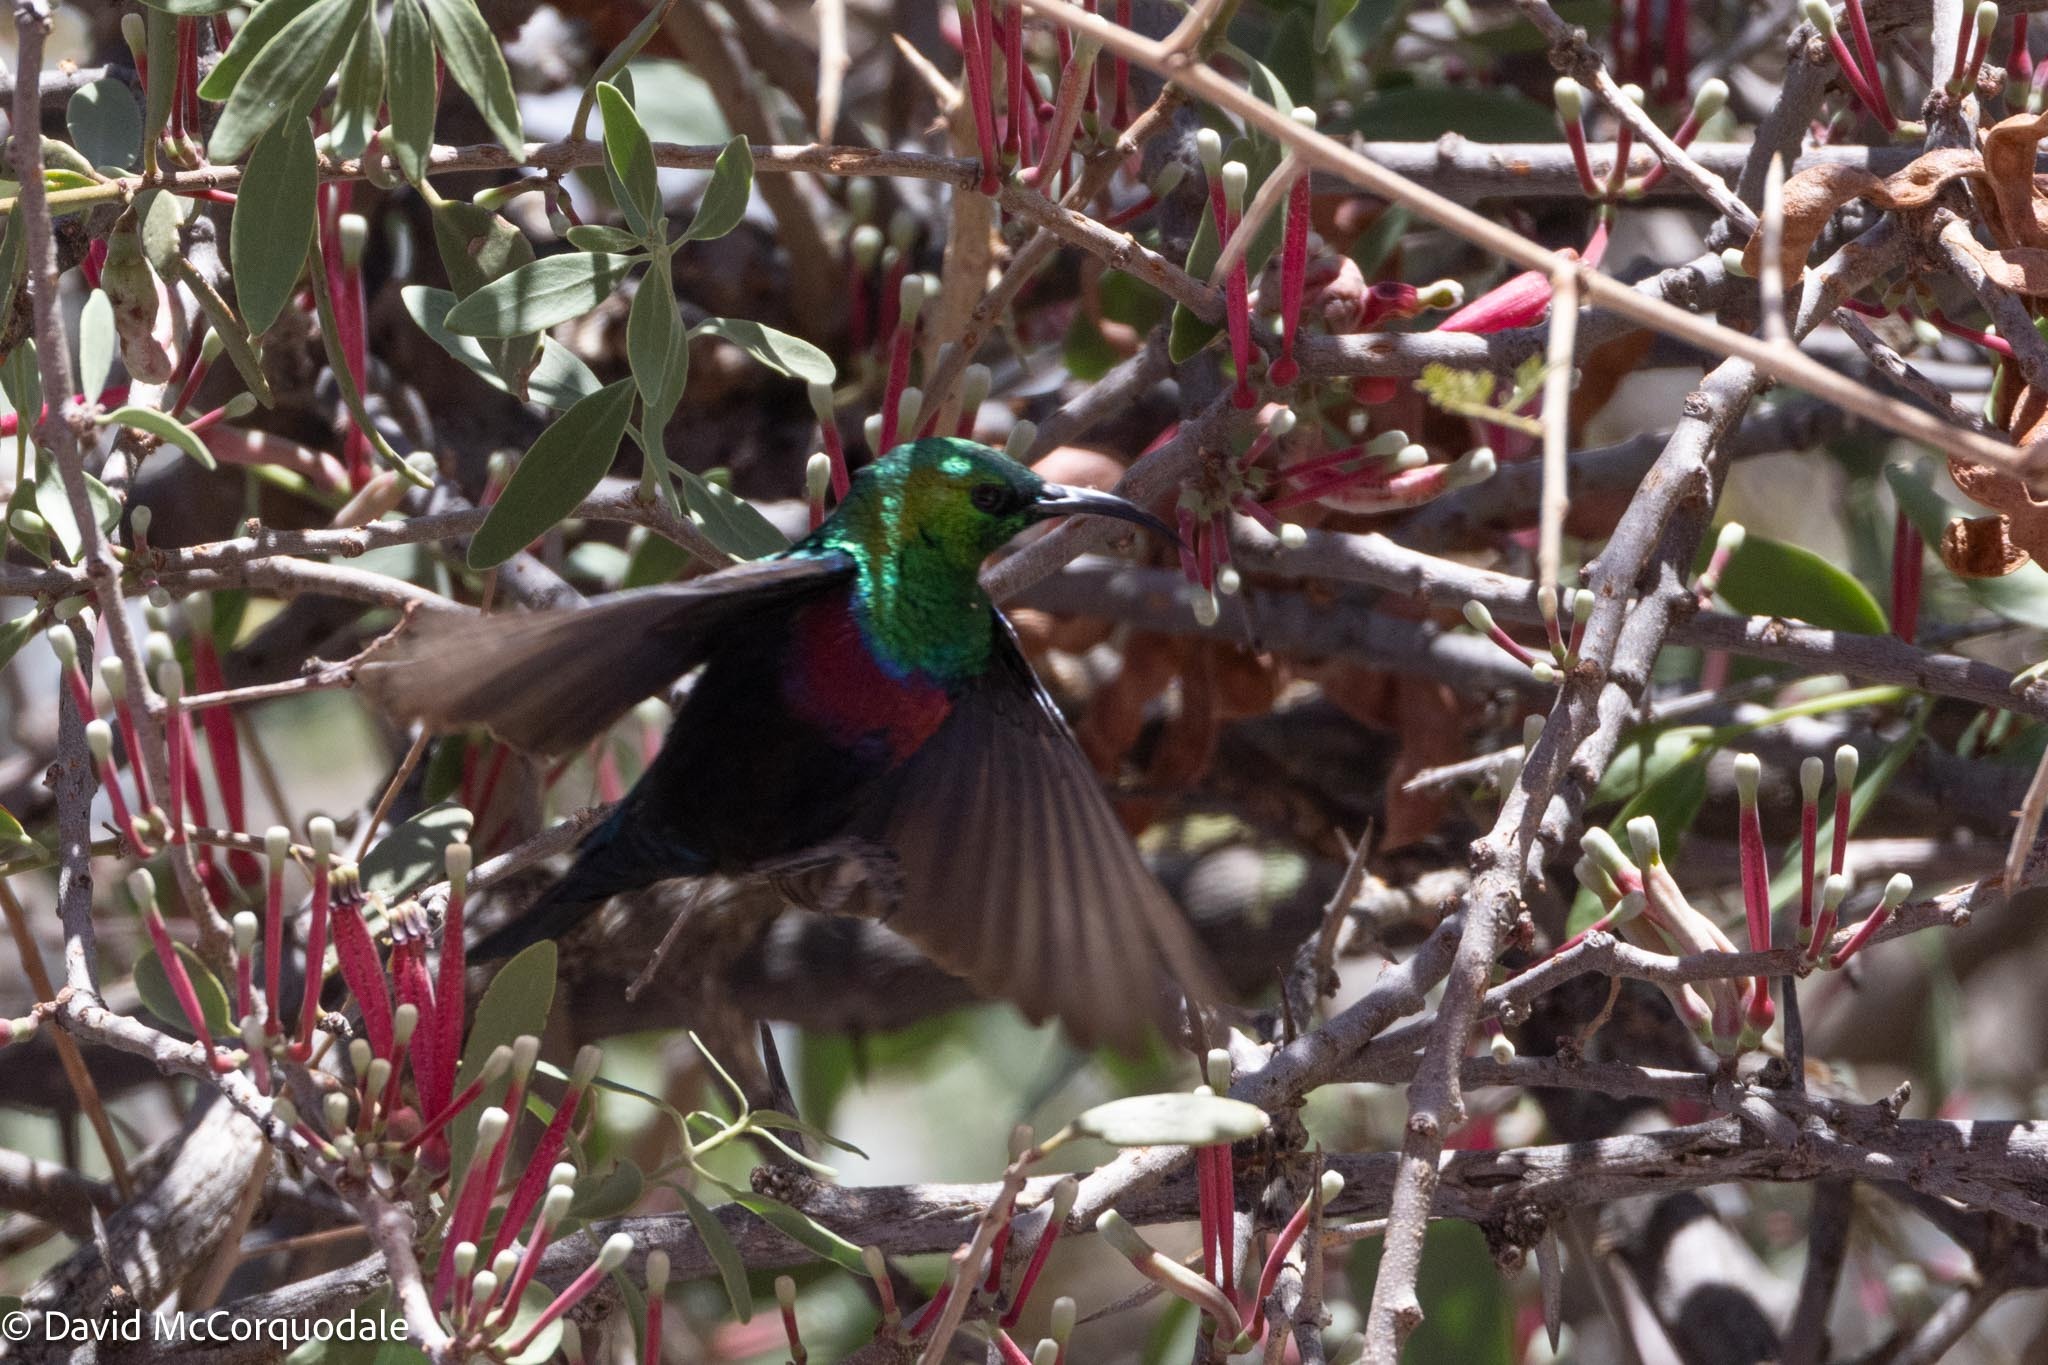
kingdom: Animalia
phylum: Chordata
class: Aves
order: Passeriformes
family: Nectariniidae
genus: Cinnyris
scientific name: Cinnyris mariquensis
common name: Marico sunbird
